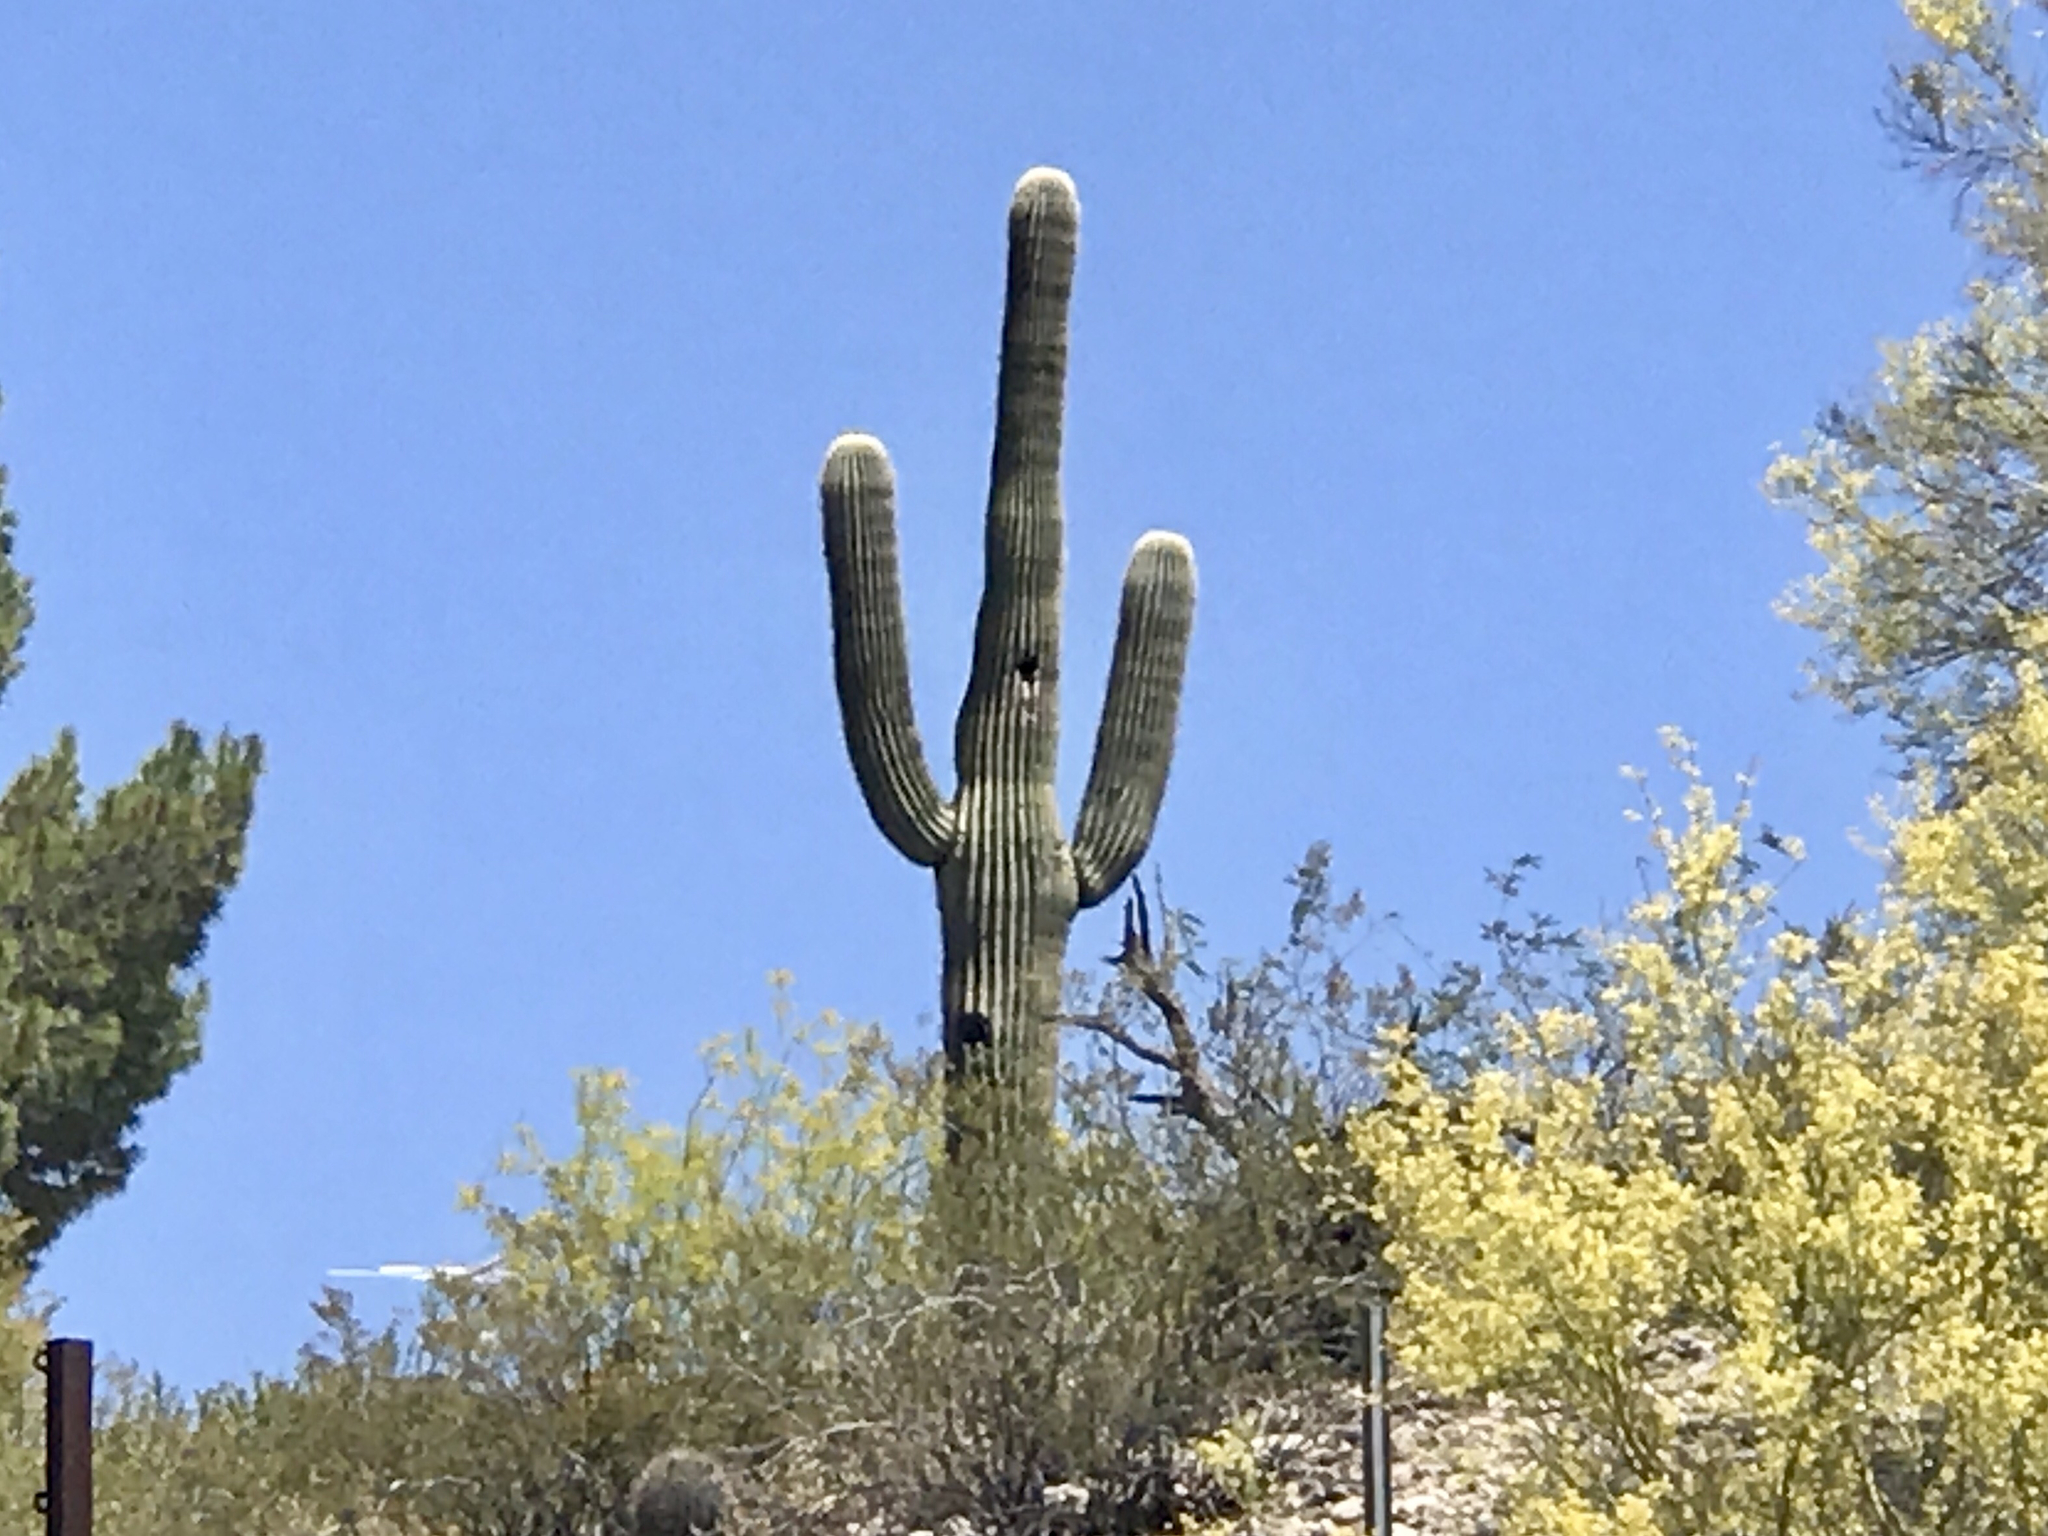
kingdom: Plantae
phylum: Tracheophyta
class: Magnoliopsida
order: Caryophyllales
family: Cactaceae
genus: Carnegiea
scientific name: Carnegiea gigantea
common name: Saguaro
